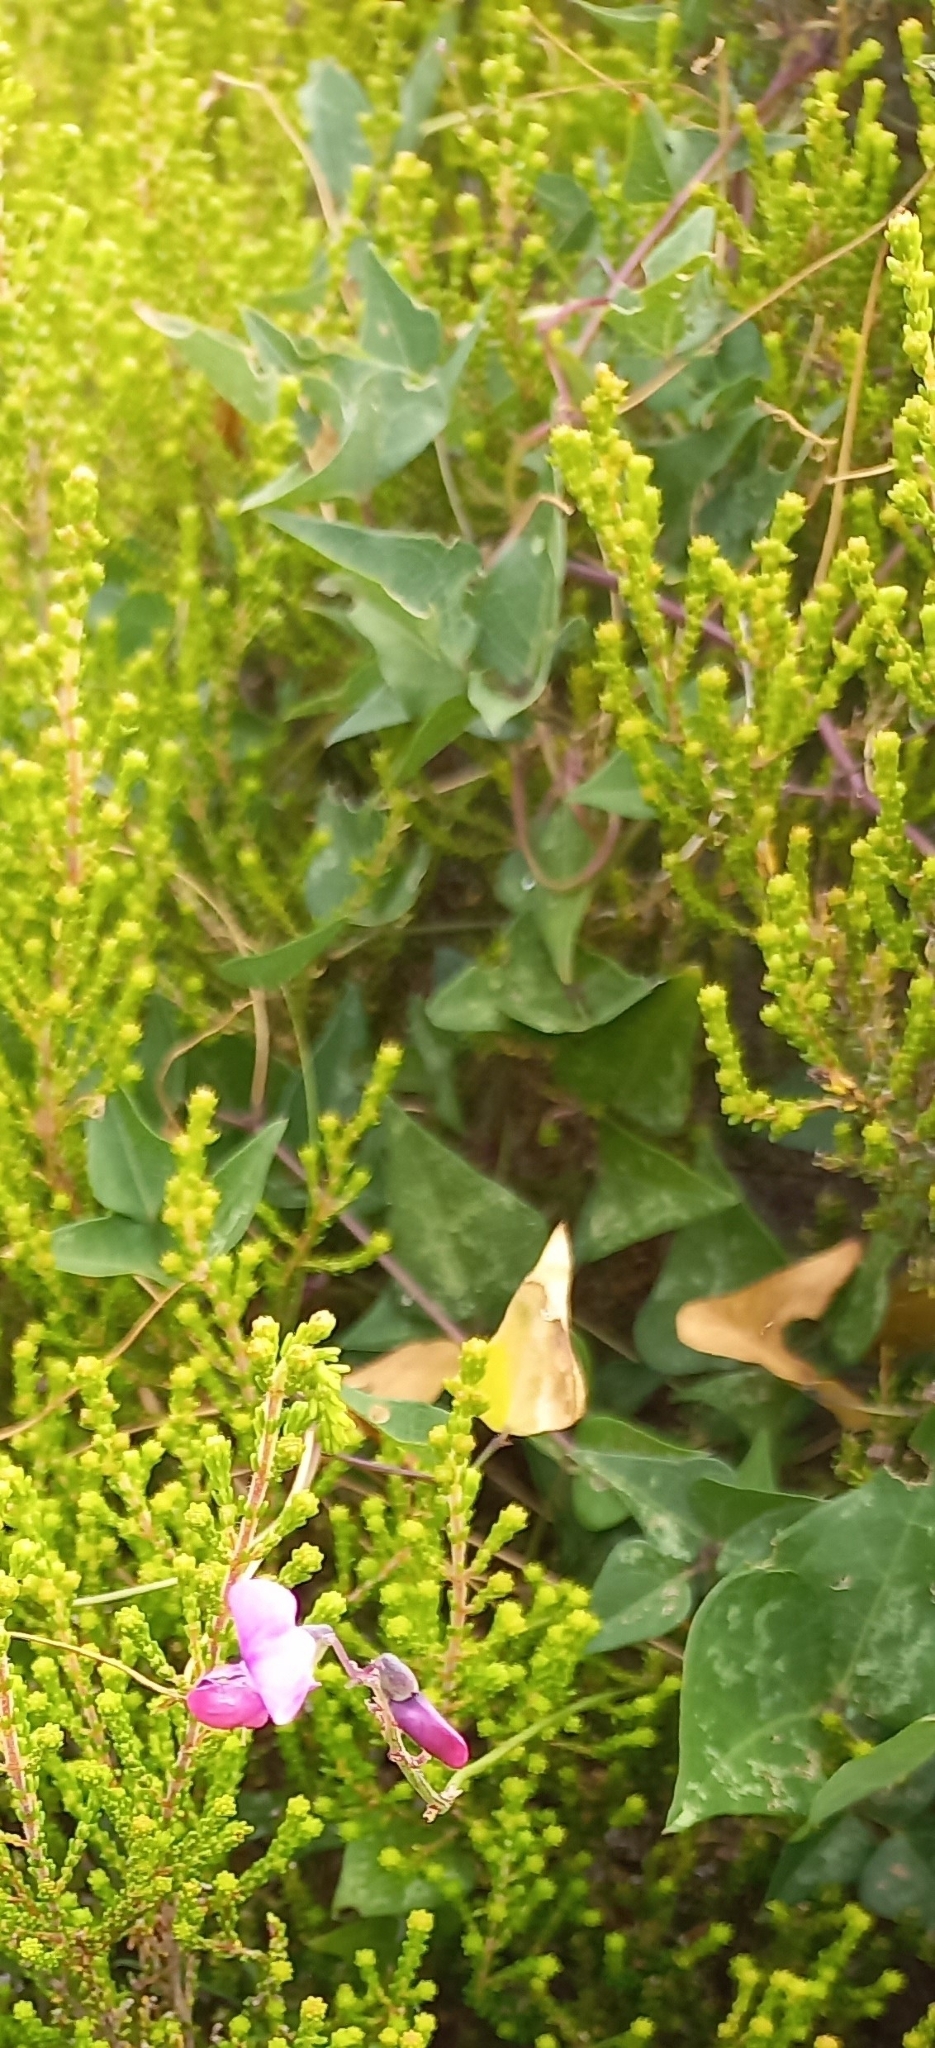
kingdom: Plantae
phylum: Tracheophyta
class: Magnoliopsida
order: Fabales
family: Fabaceae
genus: Dipogon
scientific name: Dipogon lignosus
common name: Okie bean
